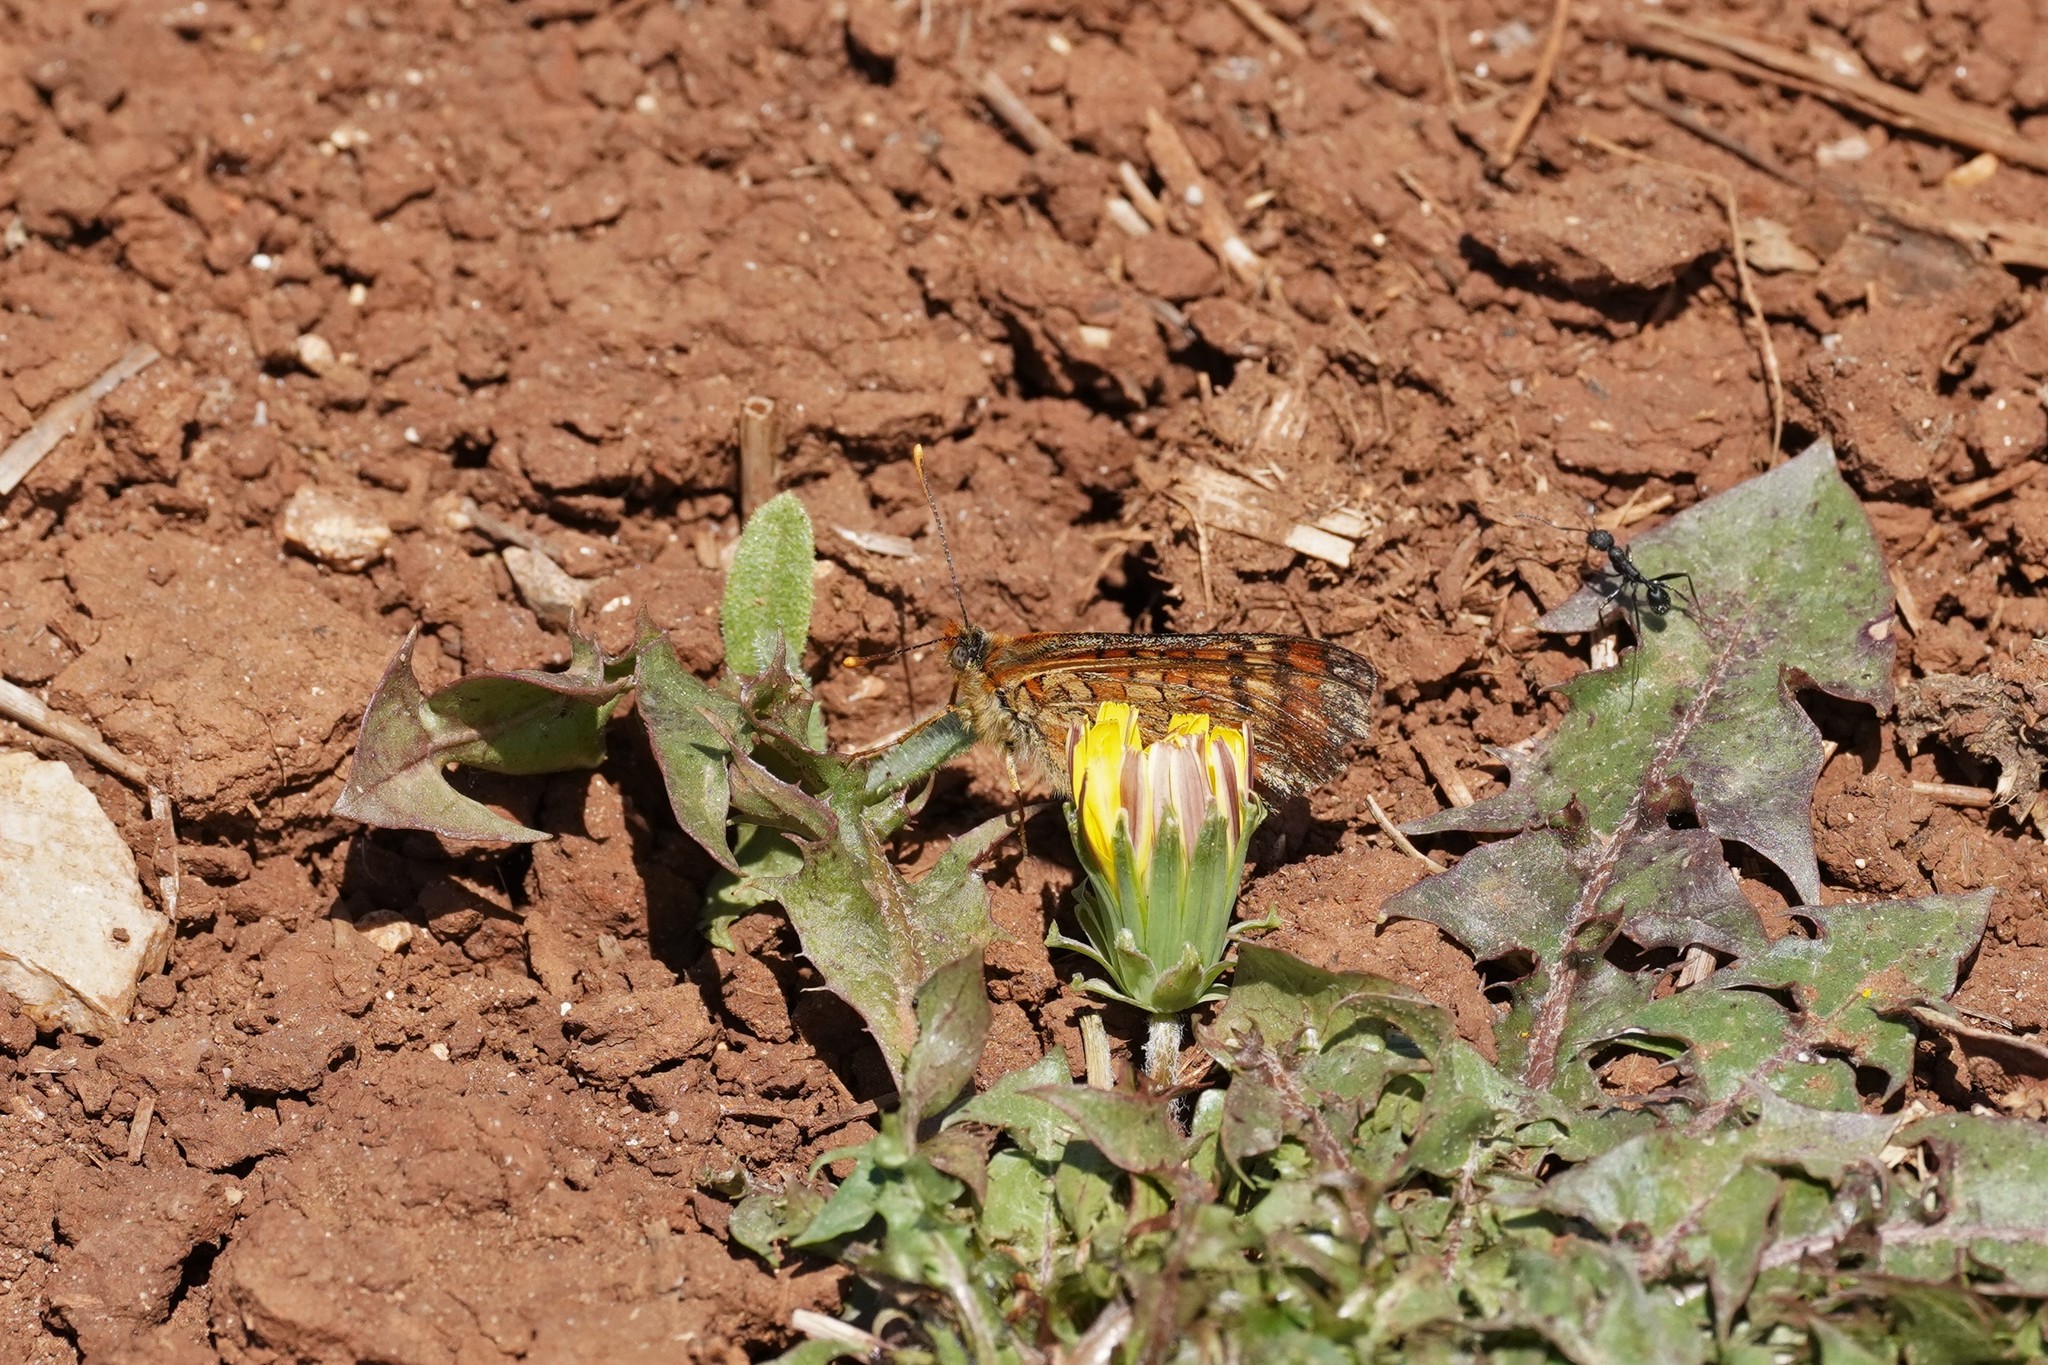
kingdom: Animalia
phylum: Arthropoda
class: Insecta
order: Lepidoptera
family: Nymphalidae
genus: Euphydryas
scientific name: Euphydryas desfontainii
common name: Spanish fritillary
